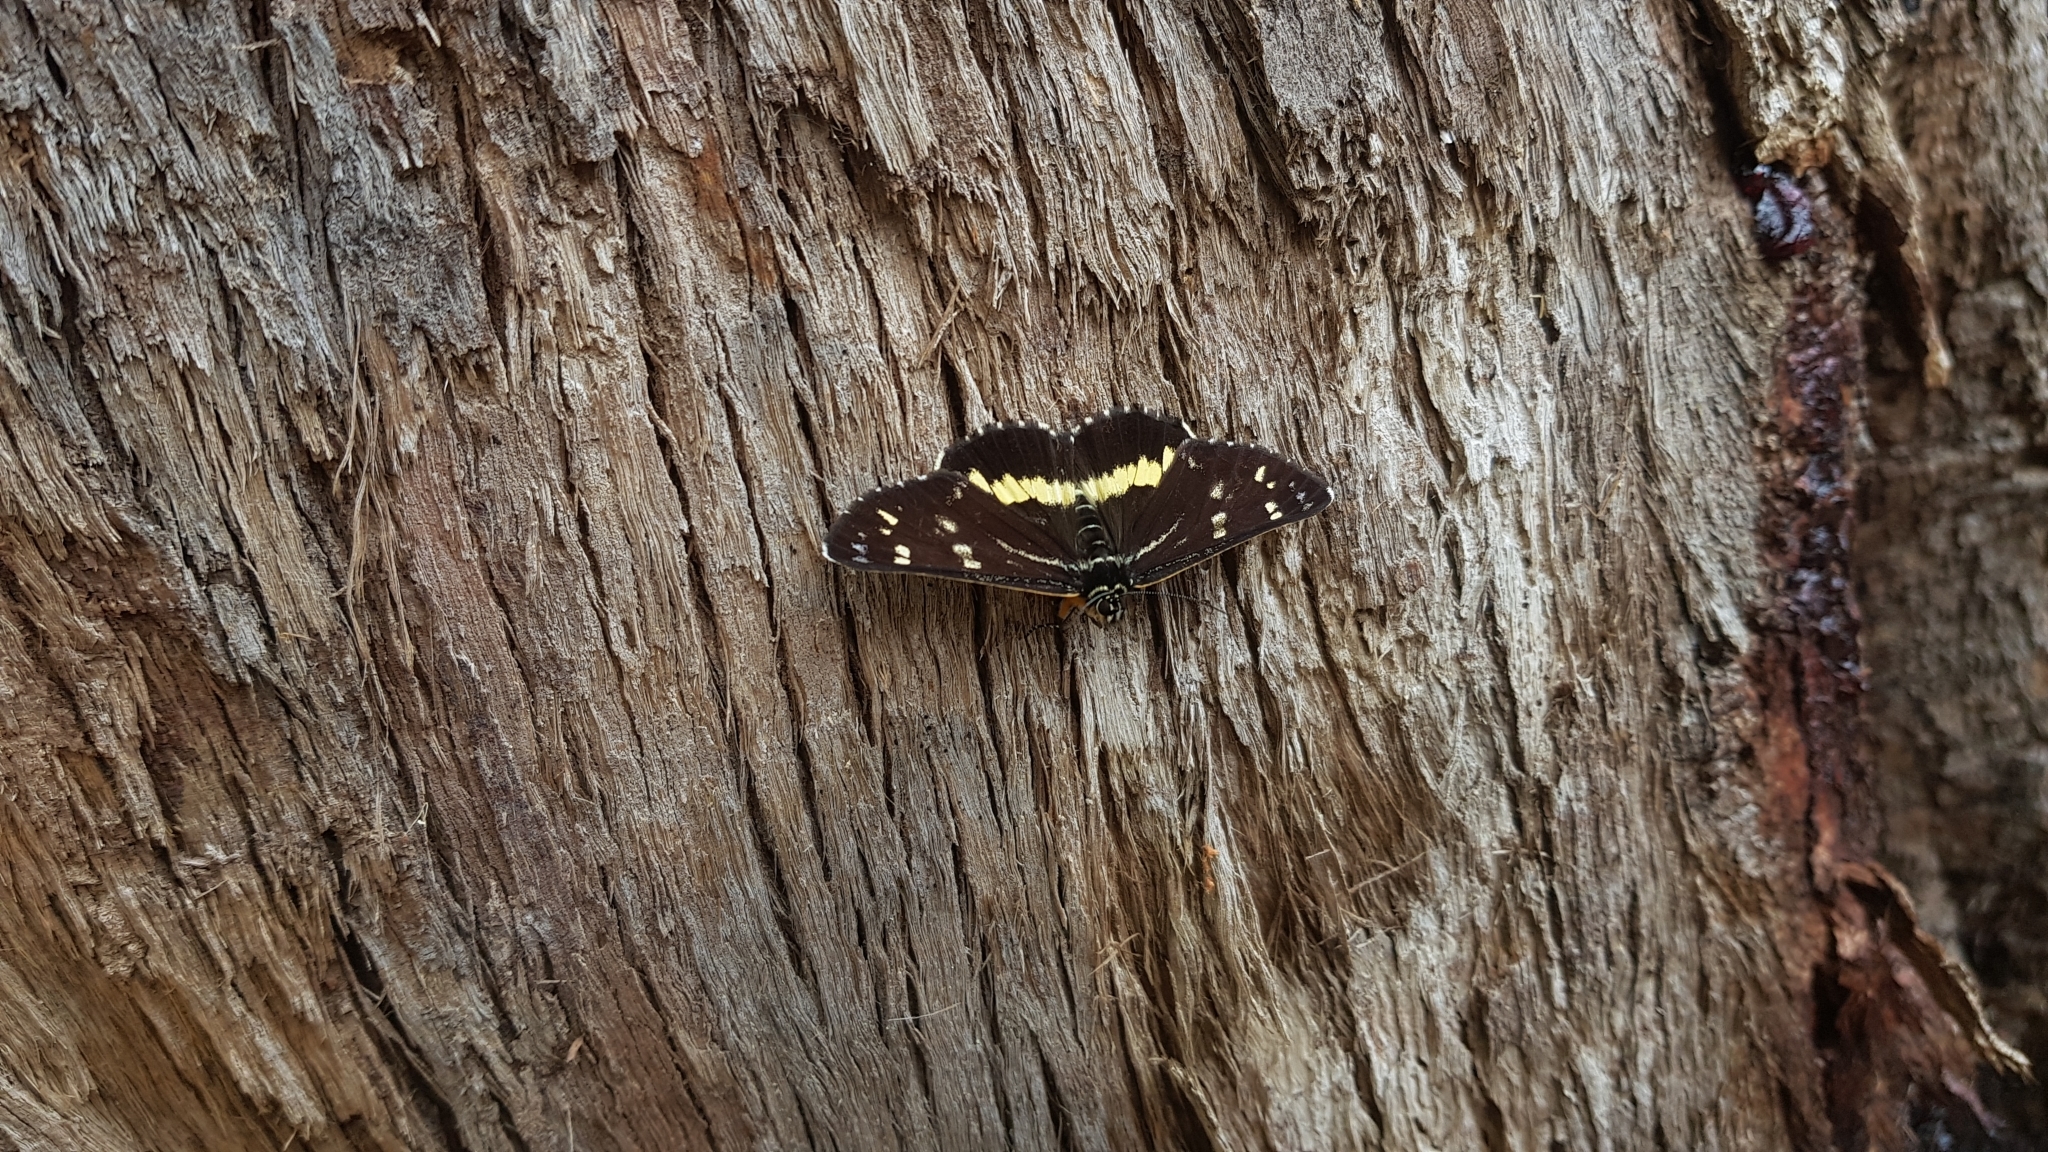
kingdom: Animalia
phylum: Arthropoda
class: Insecta
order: Lepidoptera
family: Noctuidae
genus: Cruria
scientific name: Cruria synopla
